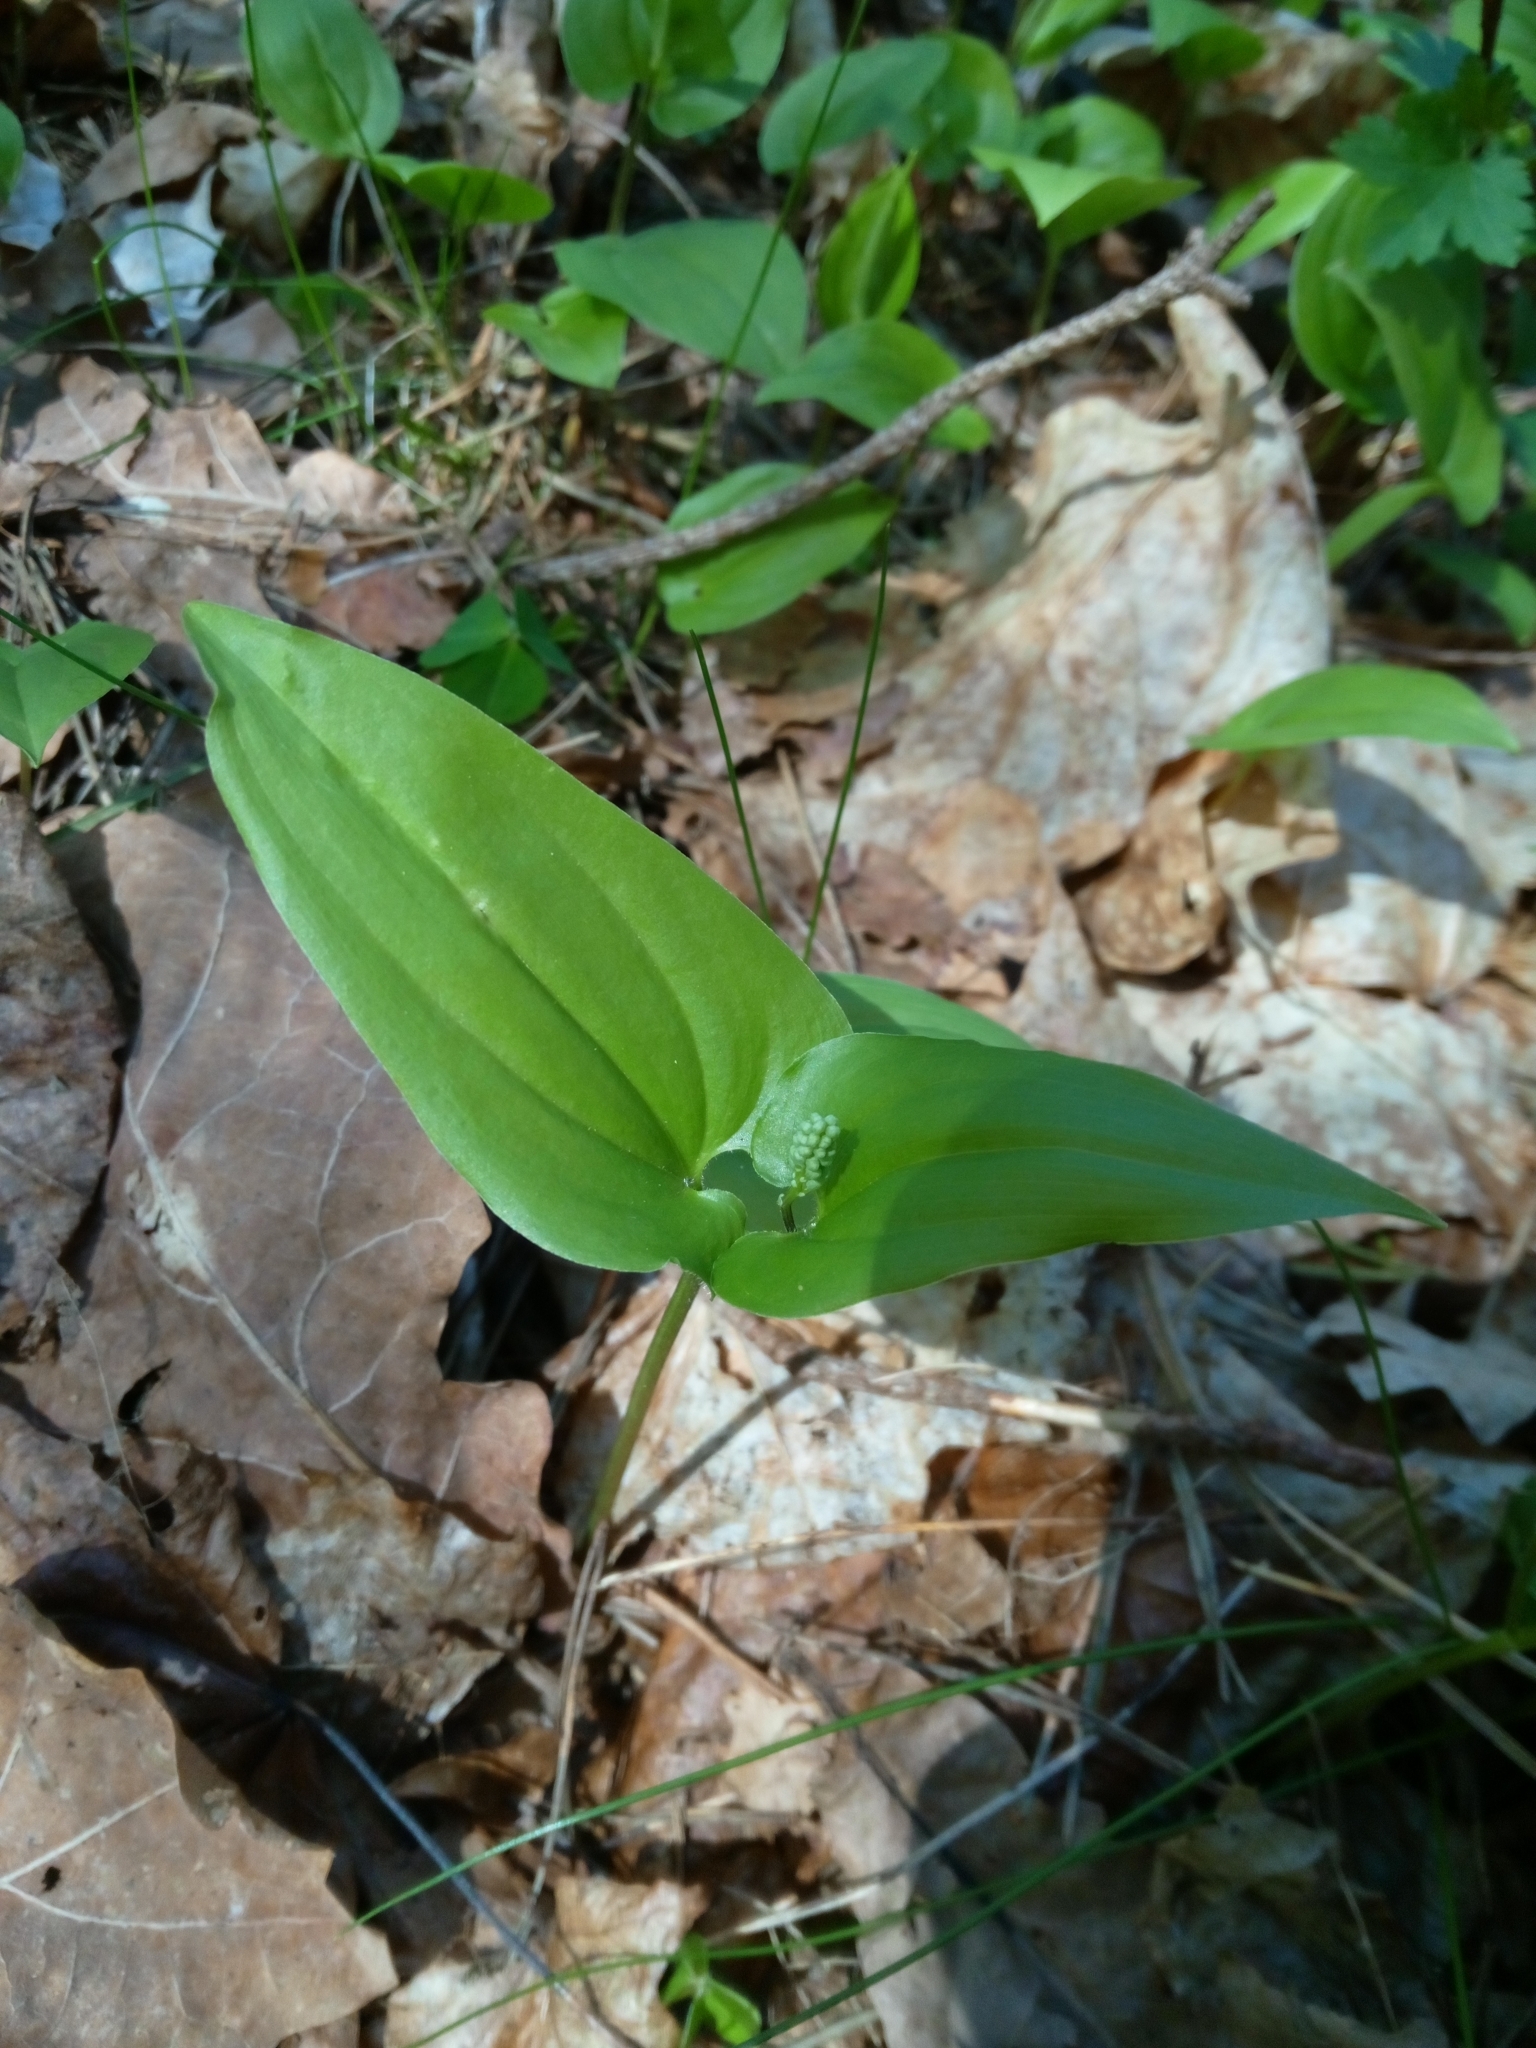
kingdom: Plantae
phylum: Tracheophyta
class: Liliopsida
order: Asparagales
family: Asparagaceae
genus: Maianthemum
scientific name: Maianthemum bifolium
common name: May lily
